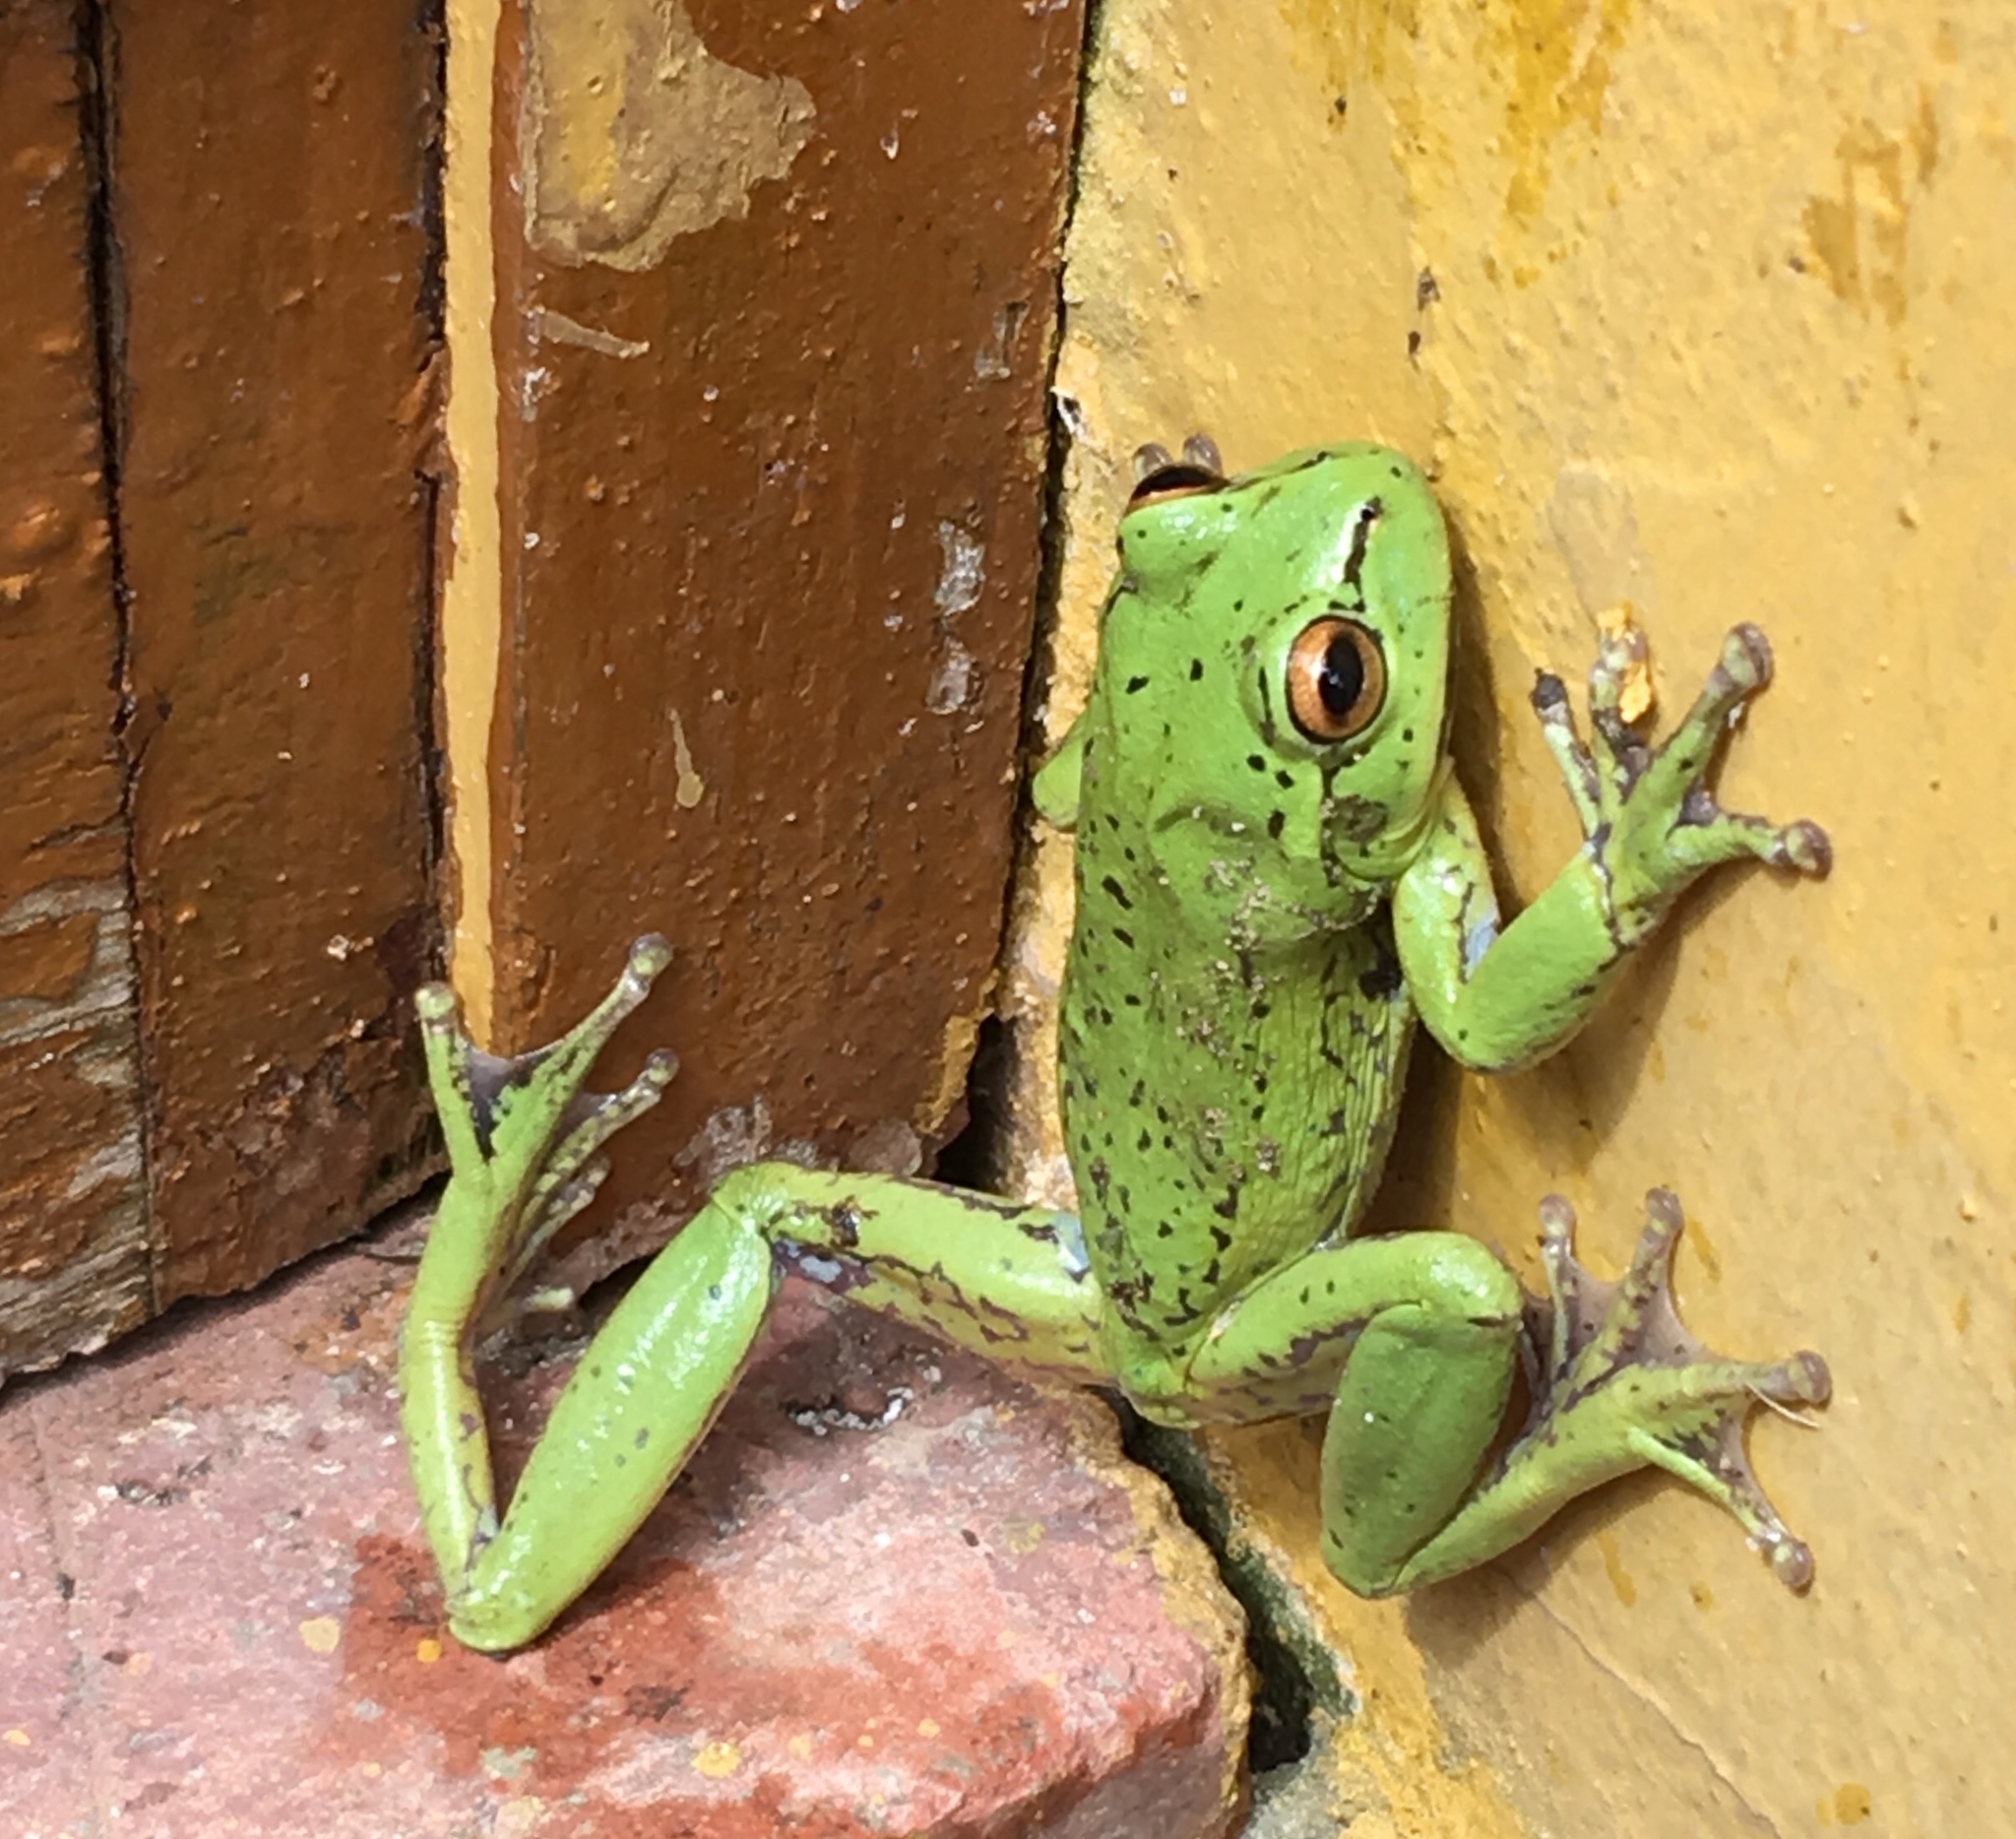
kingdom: Animalia
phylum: Chordata
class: Amphibia
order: Anura
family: Hylidae
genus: Dendropsophus
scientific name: Dendropsophus molitor
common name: Green dotted treefrog
